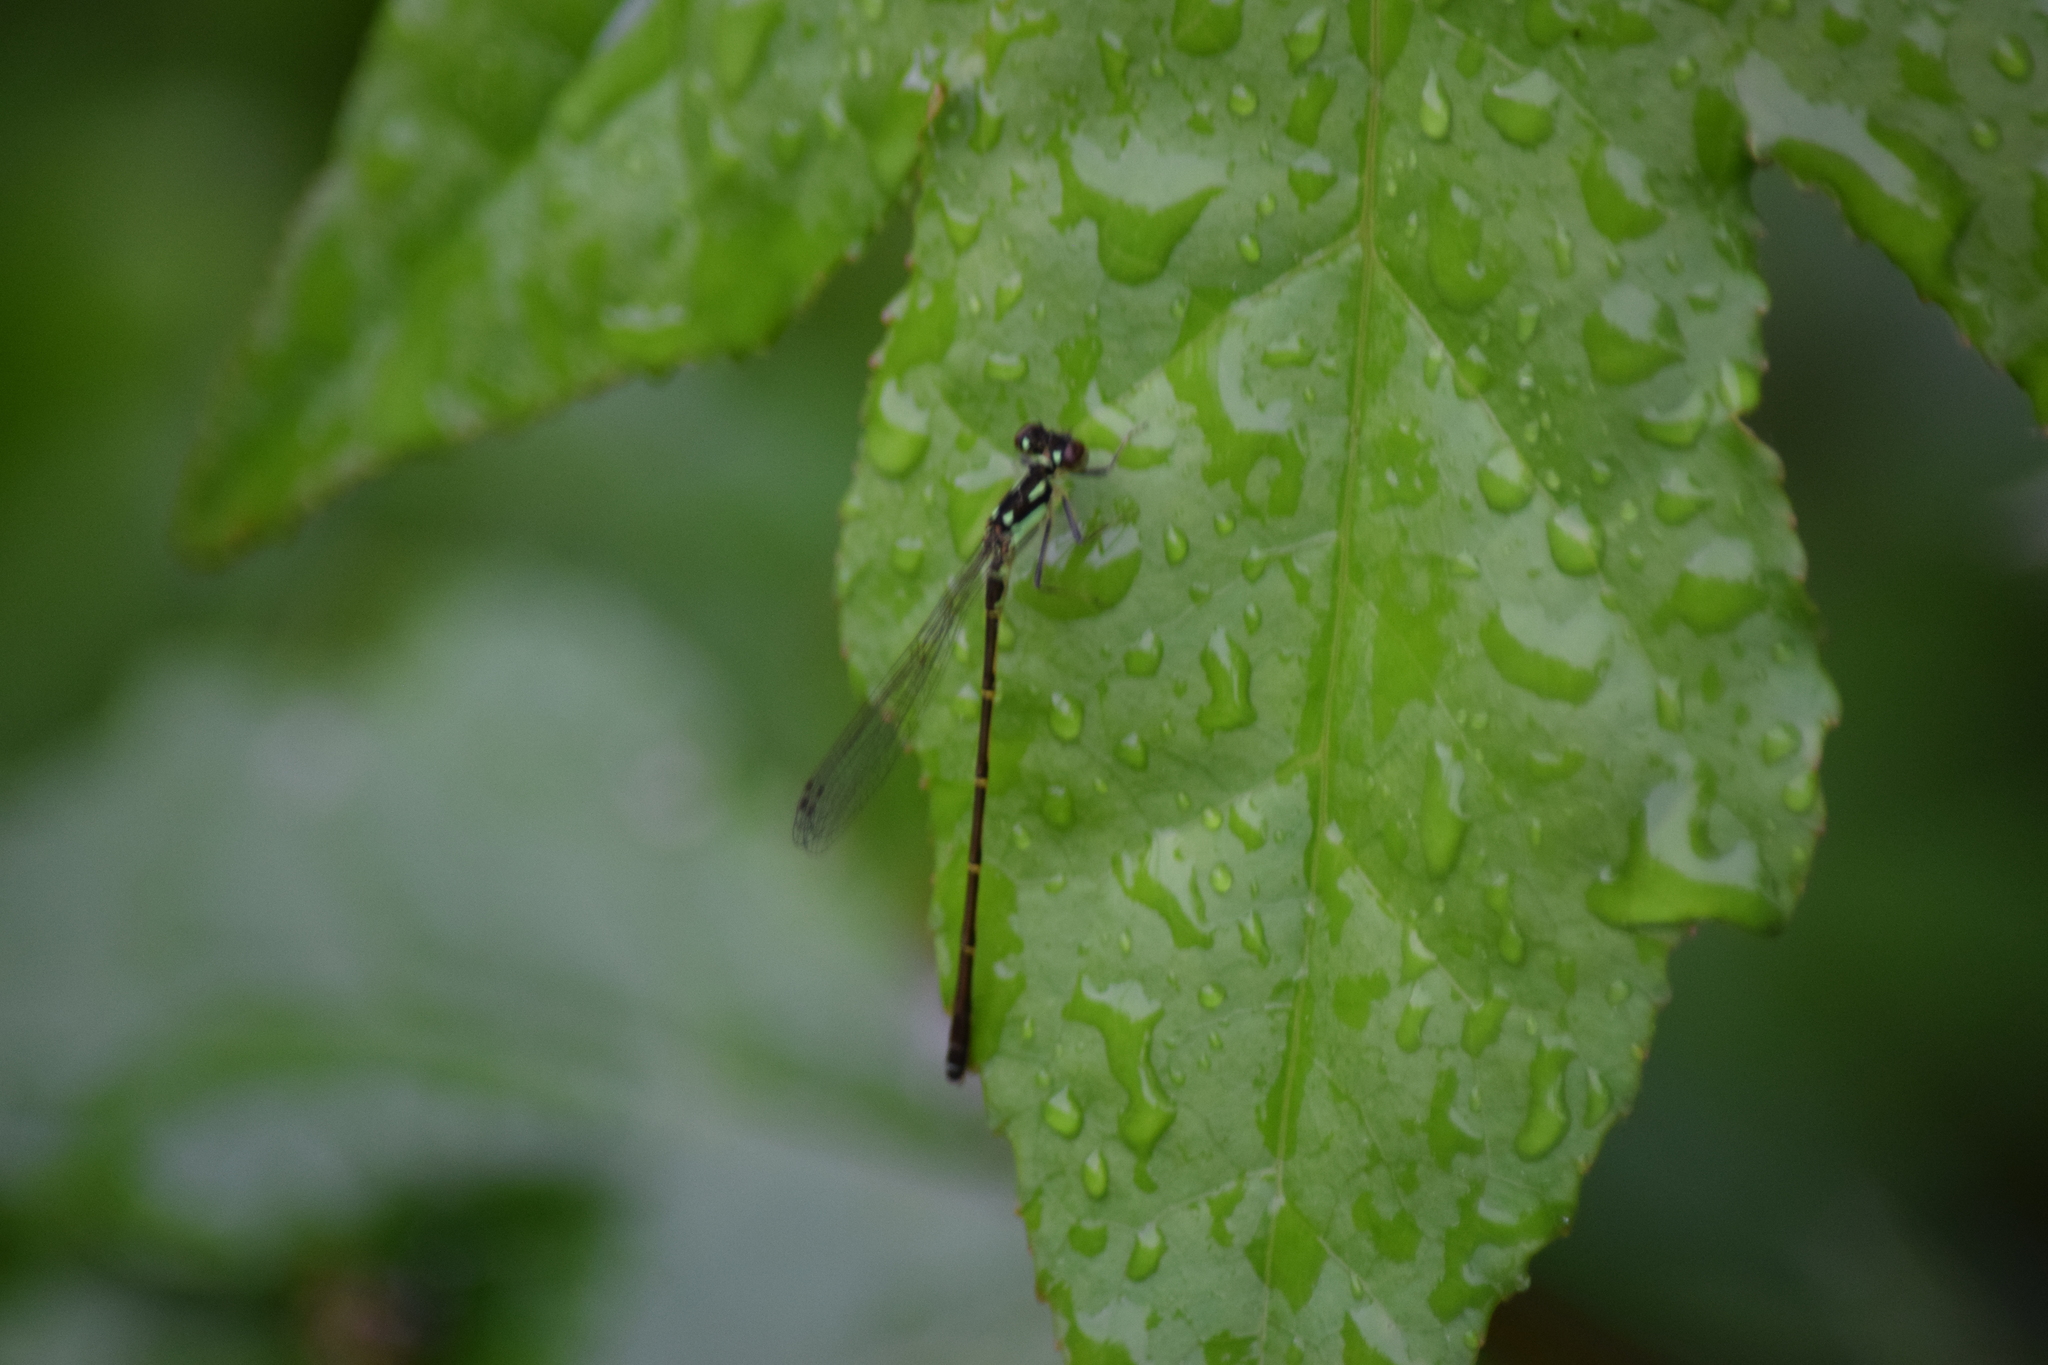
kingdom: Animalia
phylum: Arthropoda
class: Insecta
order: Odonata
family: Coenagrionidae
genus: Ischnura
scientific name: Ischnura posita
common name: Fragile forktail
